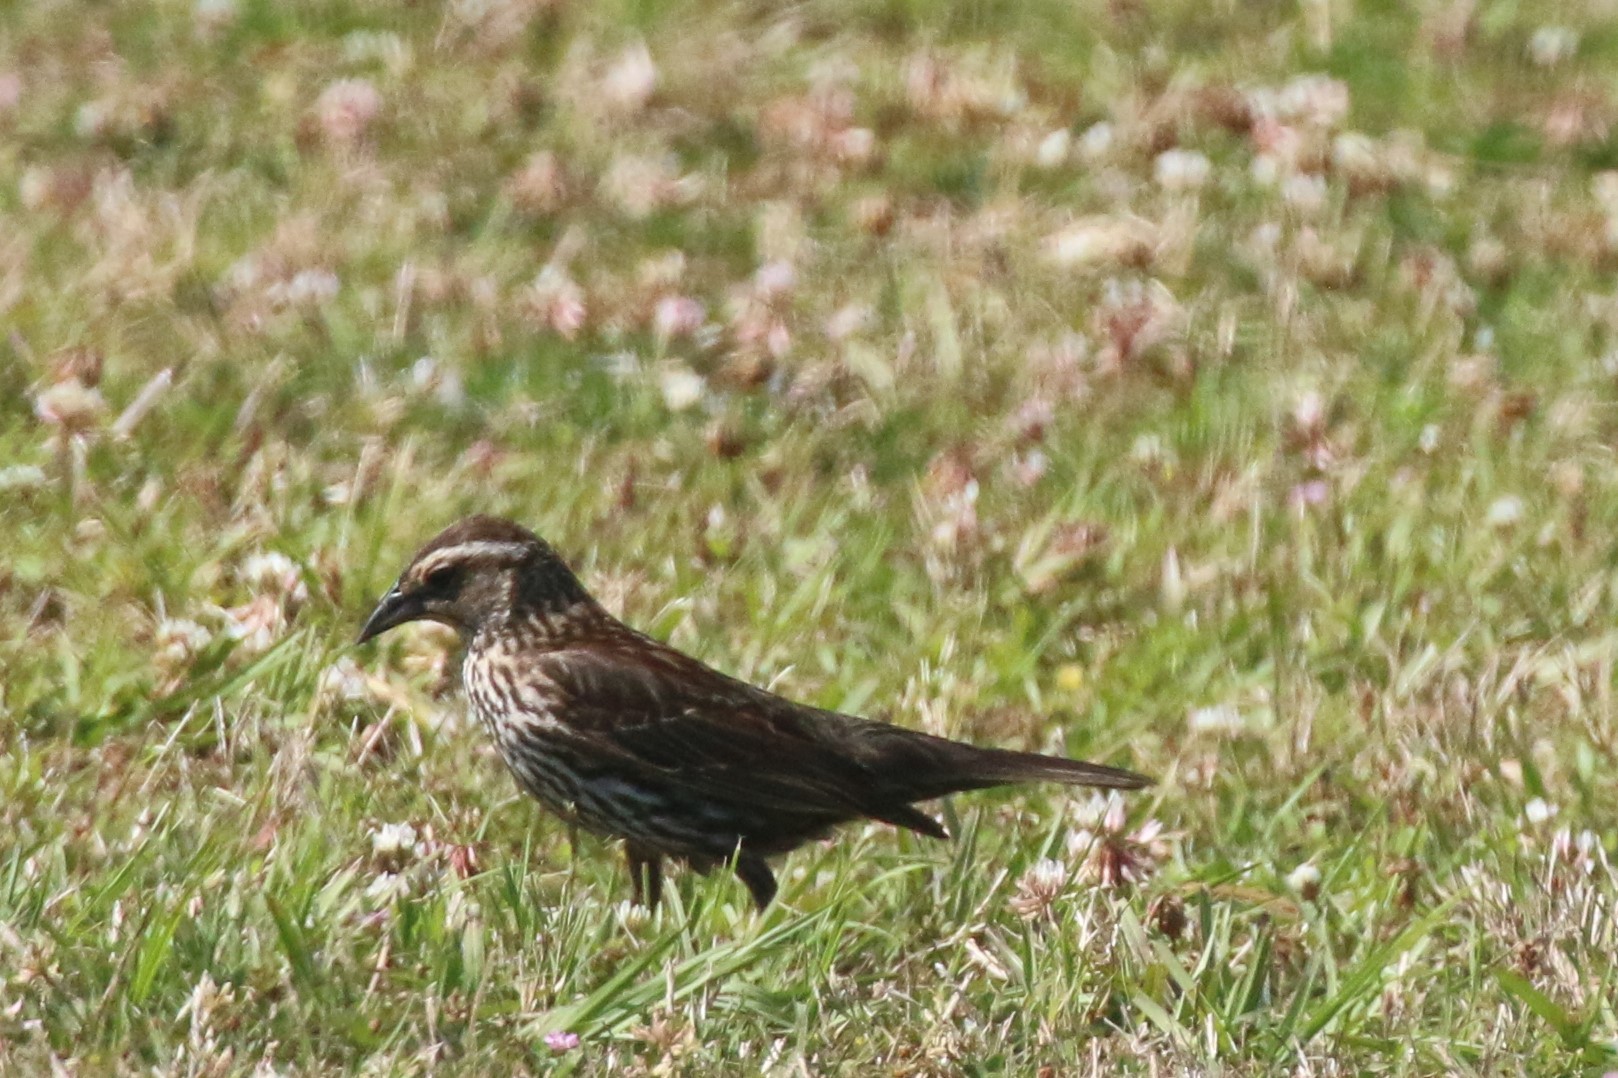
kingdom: Animalia
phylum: Chordata
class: Aves
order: Passeriformes
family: Icteridae
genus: Agelaius
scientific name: Agelaius phoeniceus
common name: Red-winged blackbird
